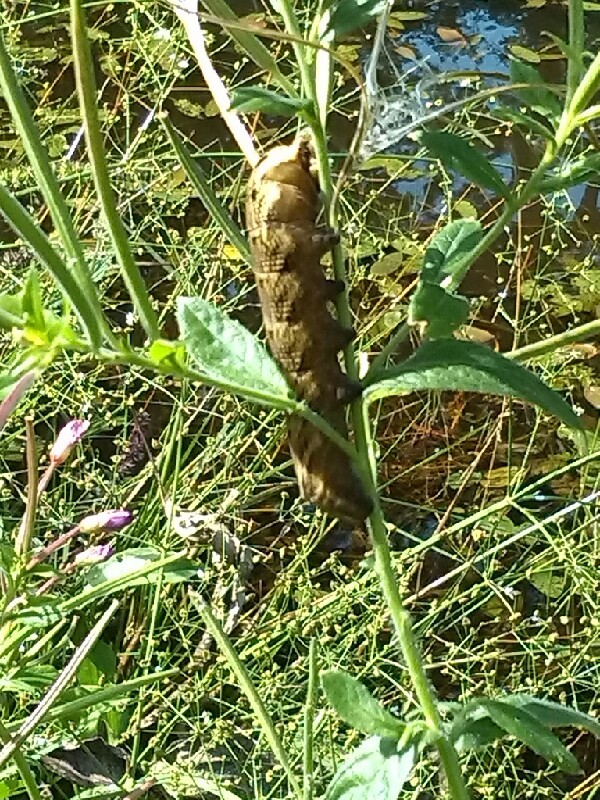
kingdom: Animalia
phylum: Arthropoda
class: Insecta
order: Lepidoptera
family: Sphingidae
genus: Deilephila
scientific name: Deilephila elpenor
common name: Elephant hawk-moth
